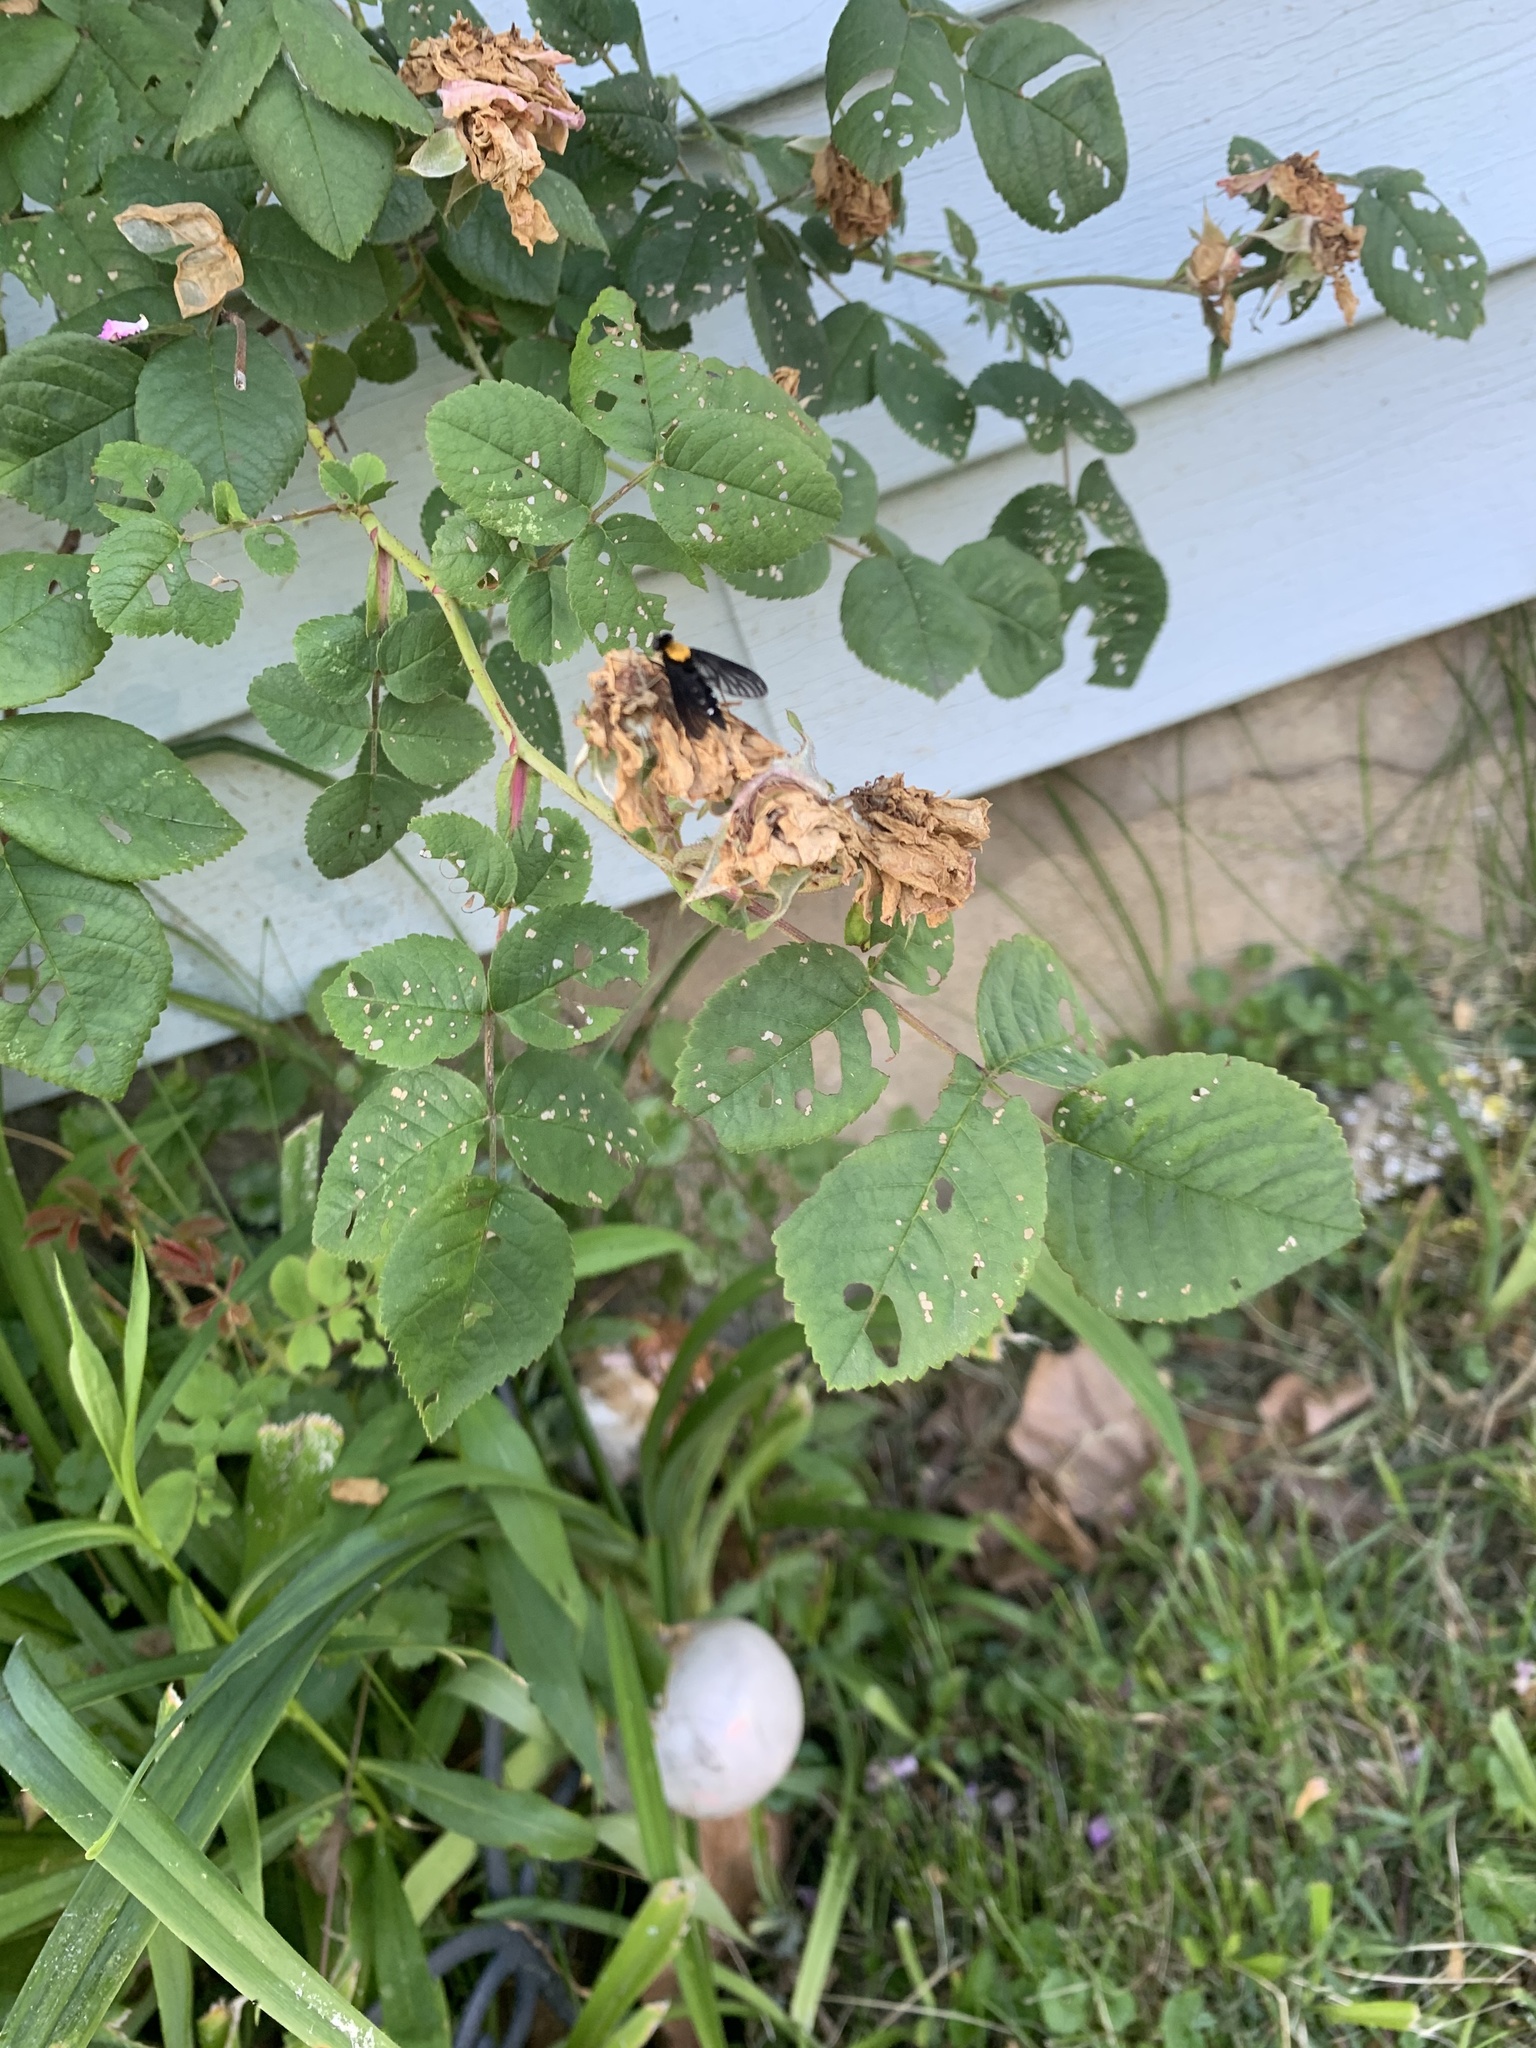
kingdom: Animalia
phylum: Arthropoda
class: Insecta
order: Diptera
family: Rhagionidae
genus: Chrysopilus
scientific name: Chrysopilus thoracicus
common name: Golden-backed snipe fly
